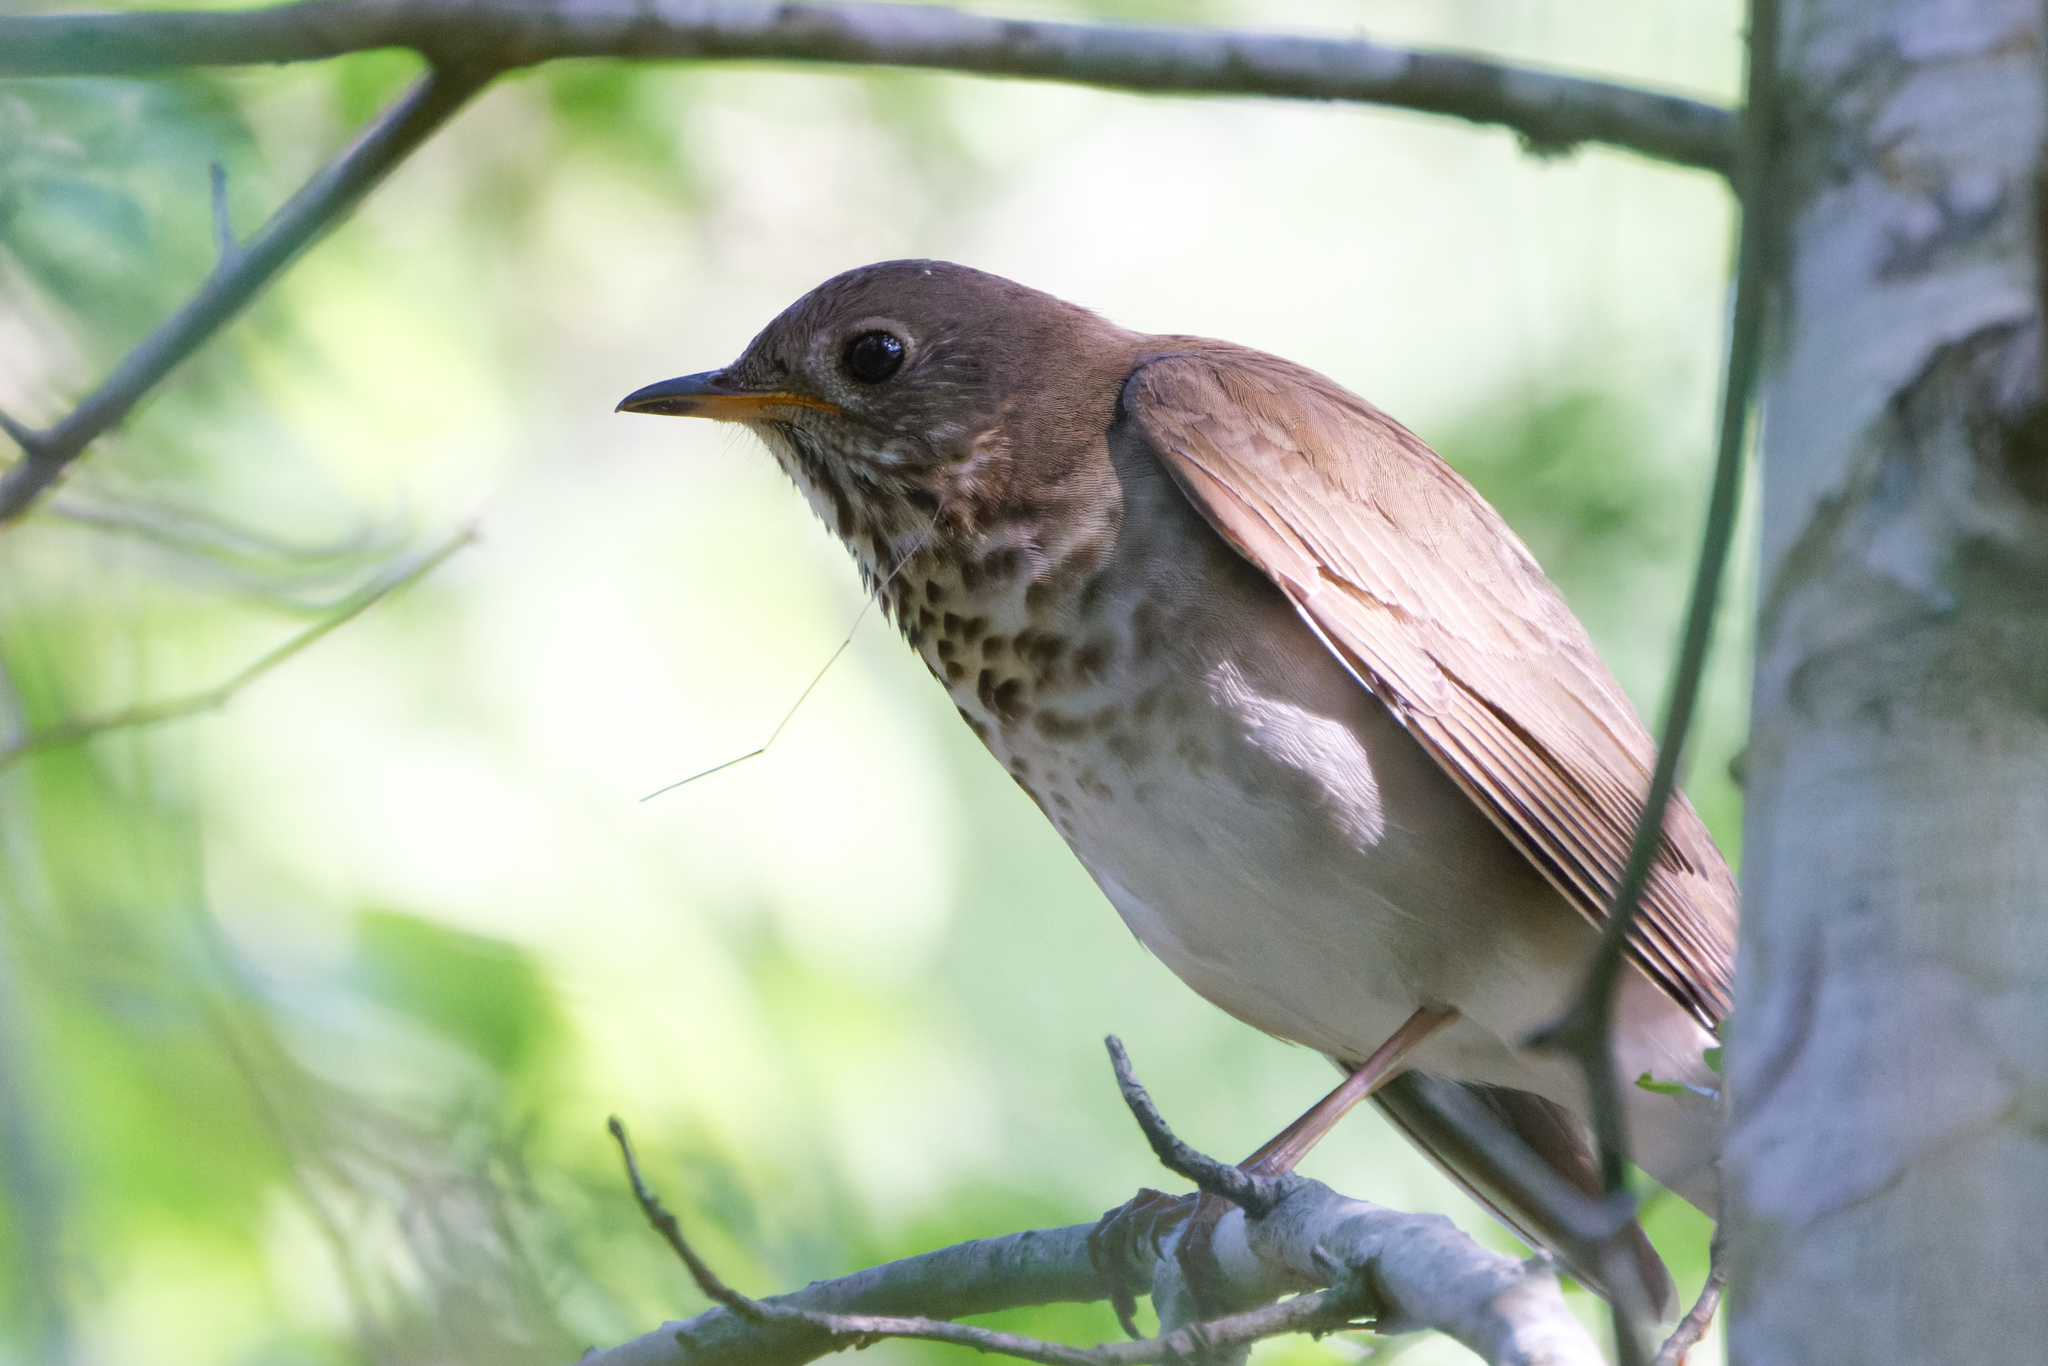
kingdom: Animalia
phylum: Chordata
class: Aves
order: Passeriformes
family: Turdidae
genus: Catharus
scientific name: Catharus minimus
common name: Grey-cheeked thrush
